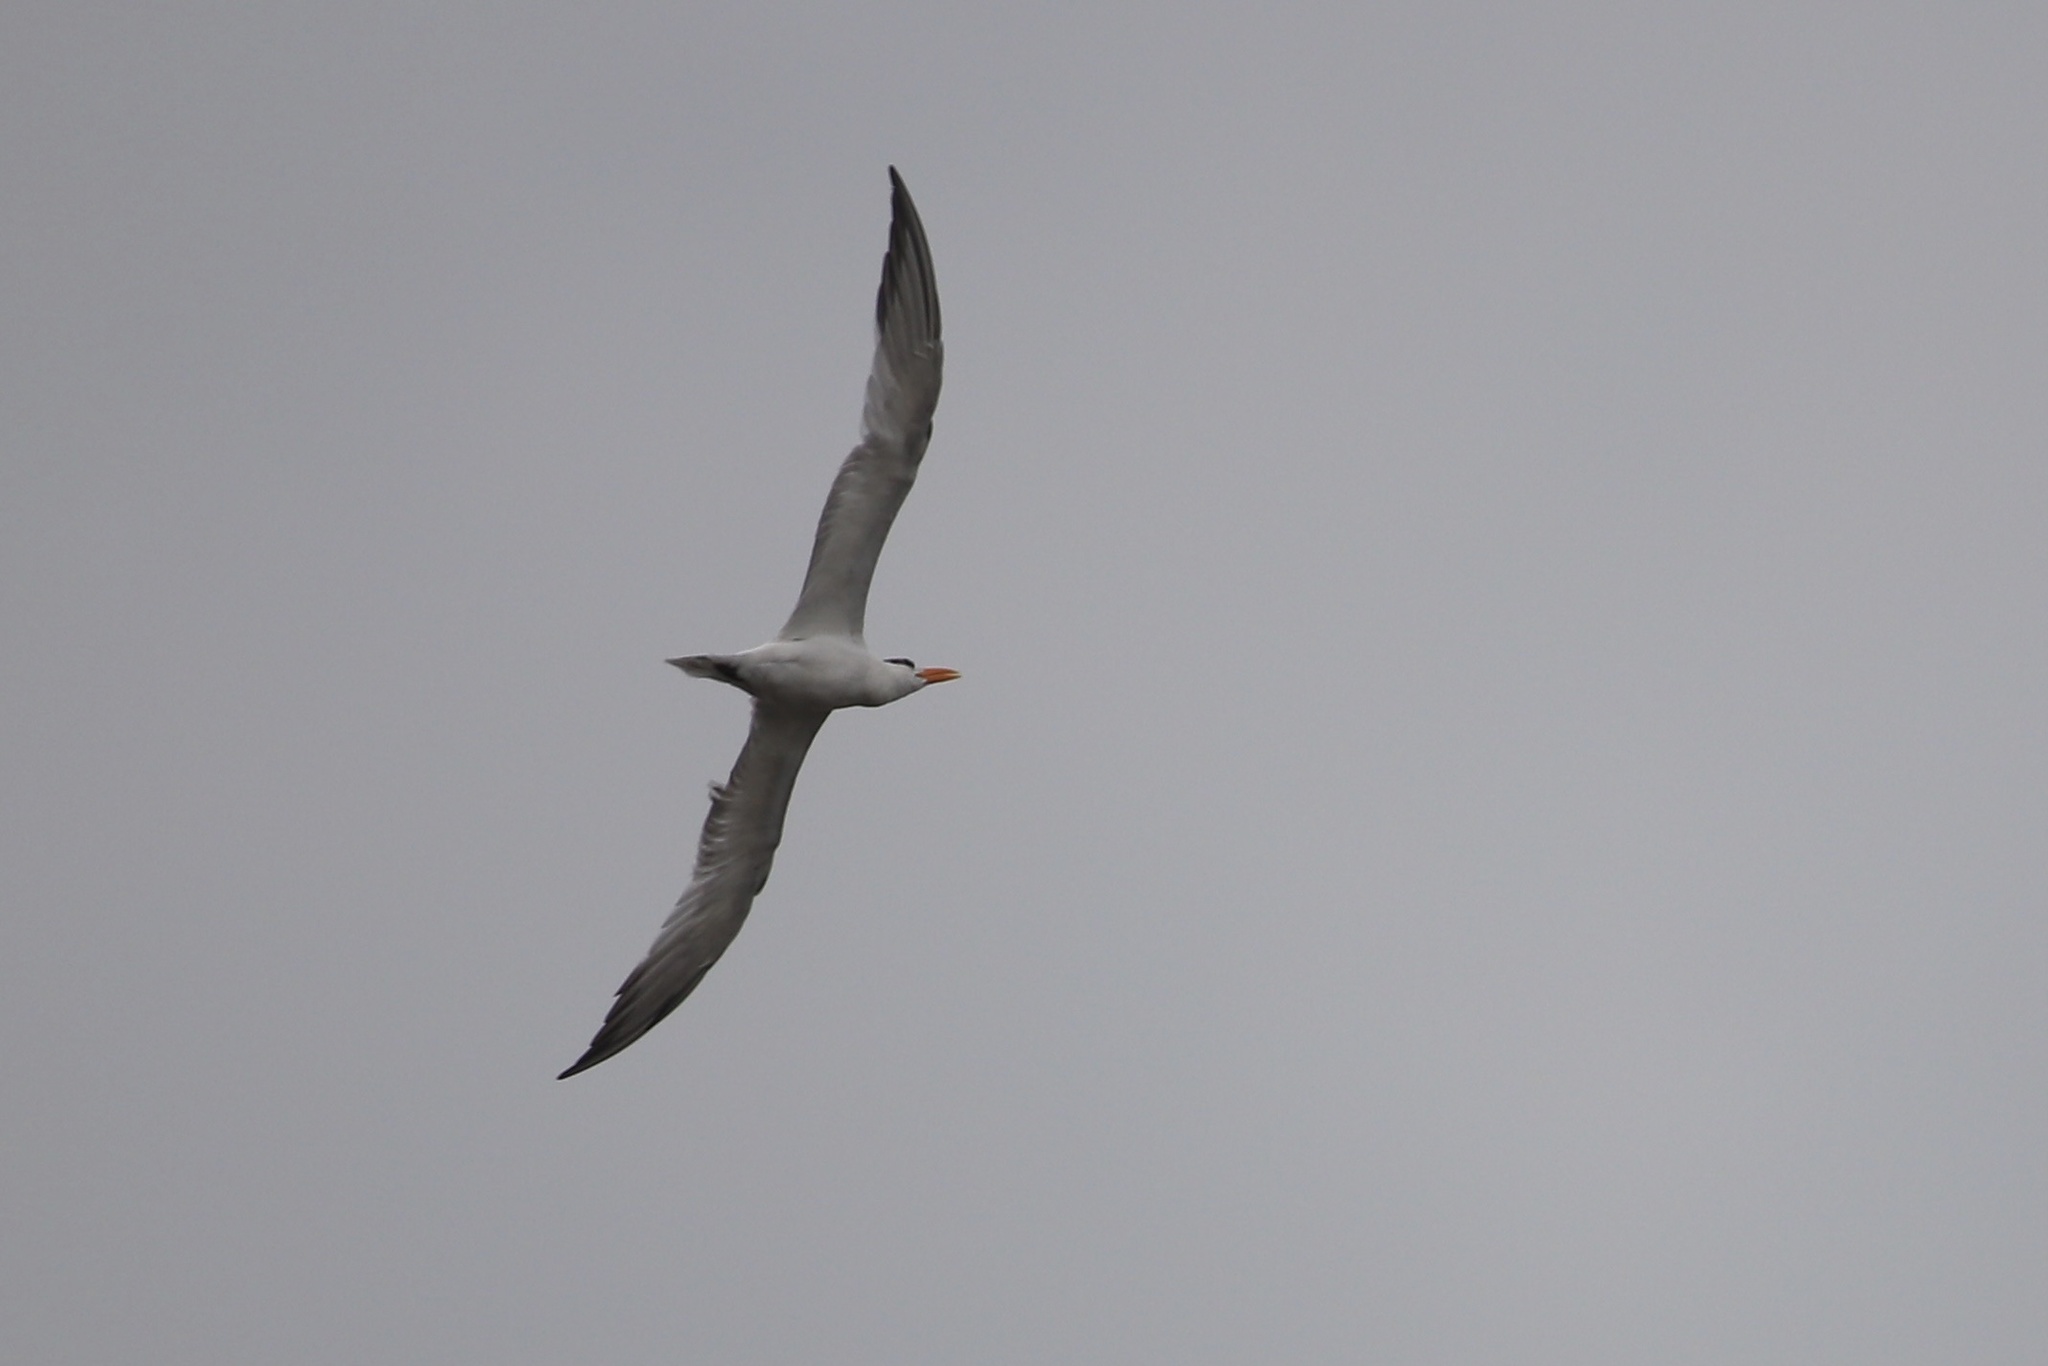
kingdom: Animalia
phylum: Chordata
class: Aves
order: Charadriiformes
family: Laridae
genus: Thalasseus
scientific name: Thalasseus maximus
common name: Royal tern
